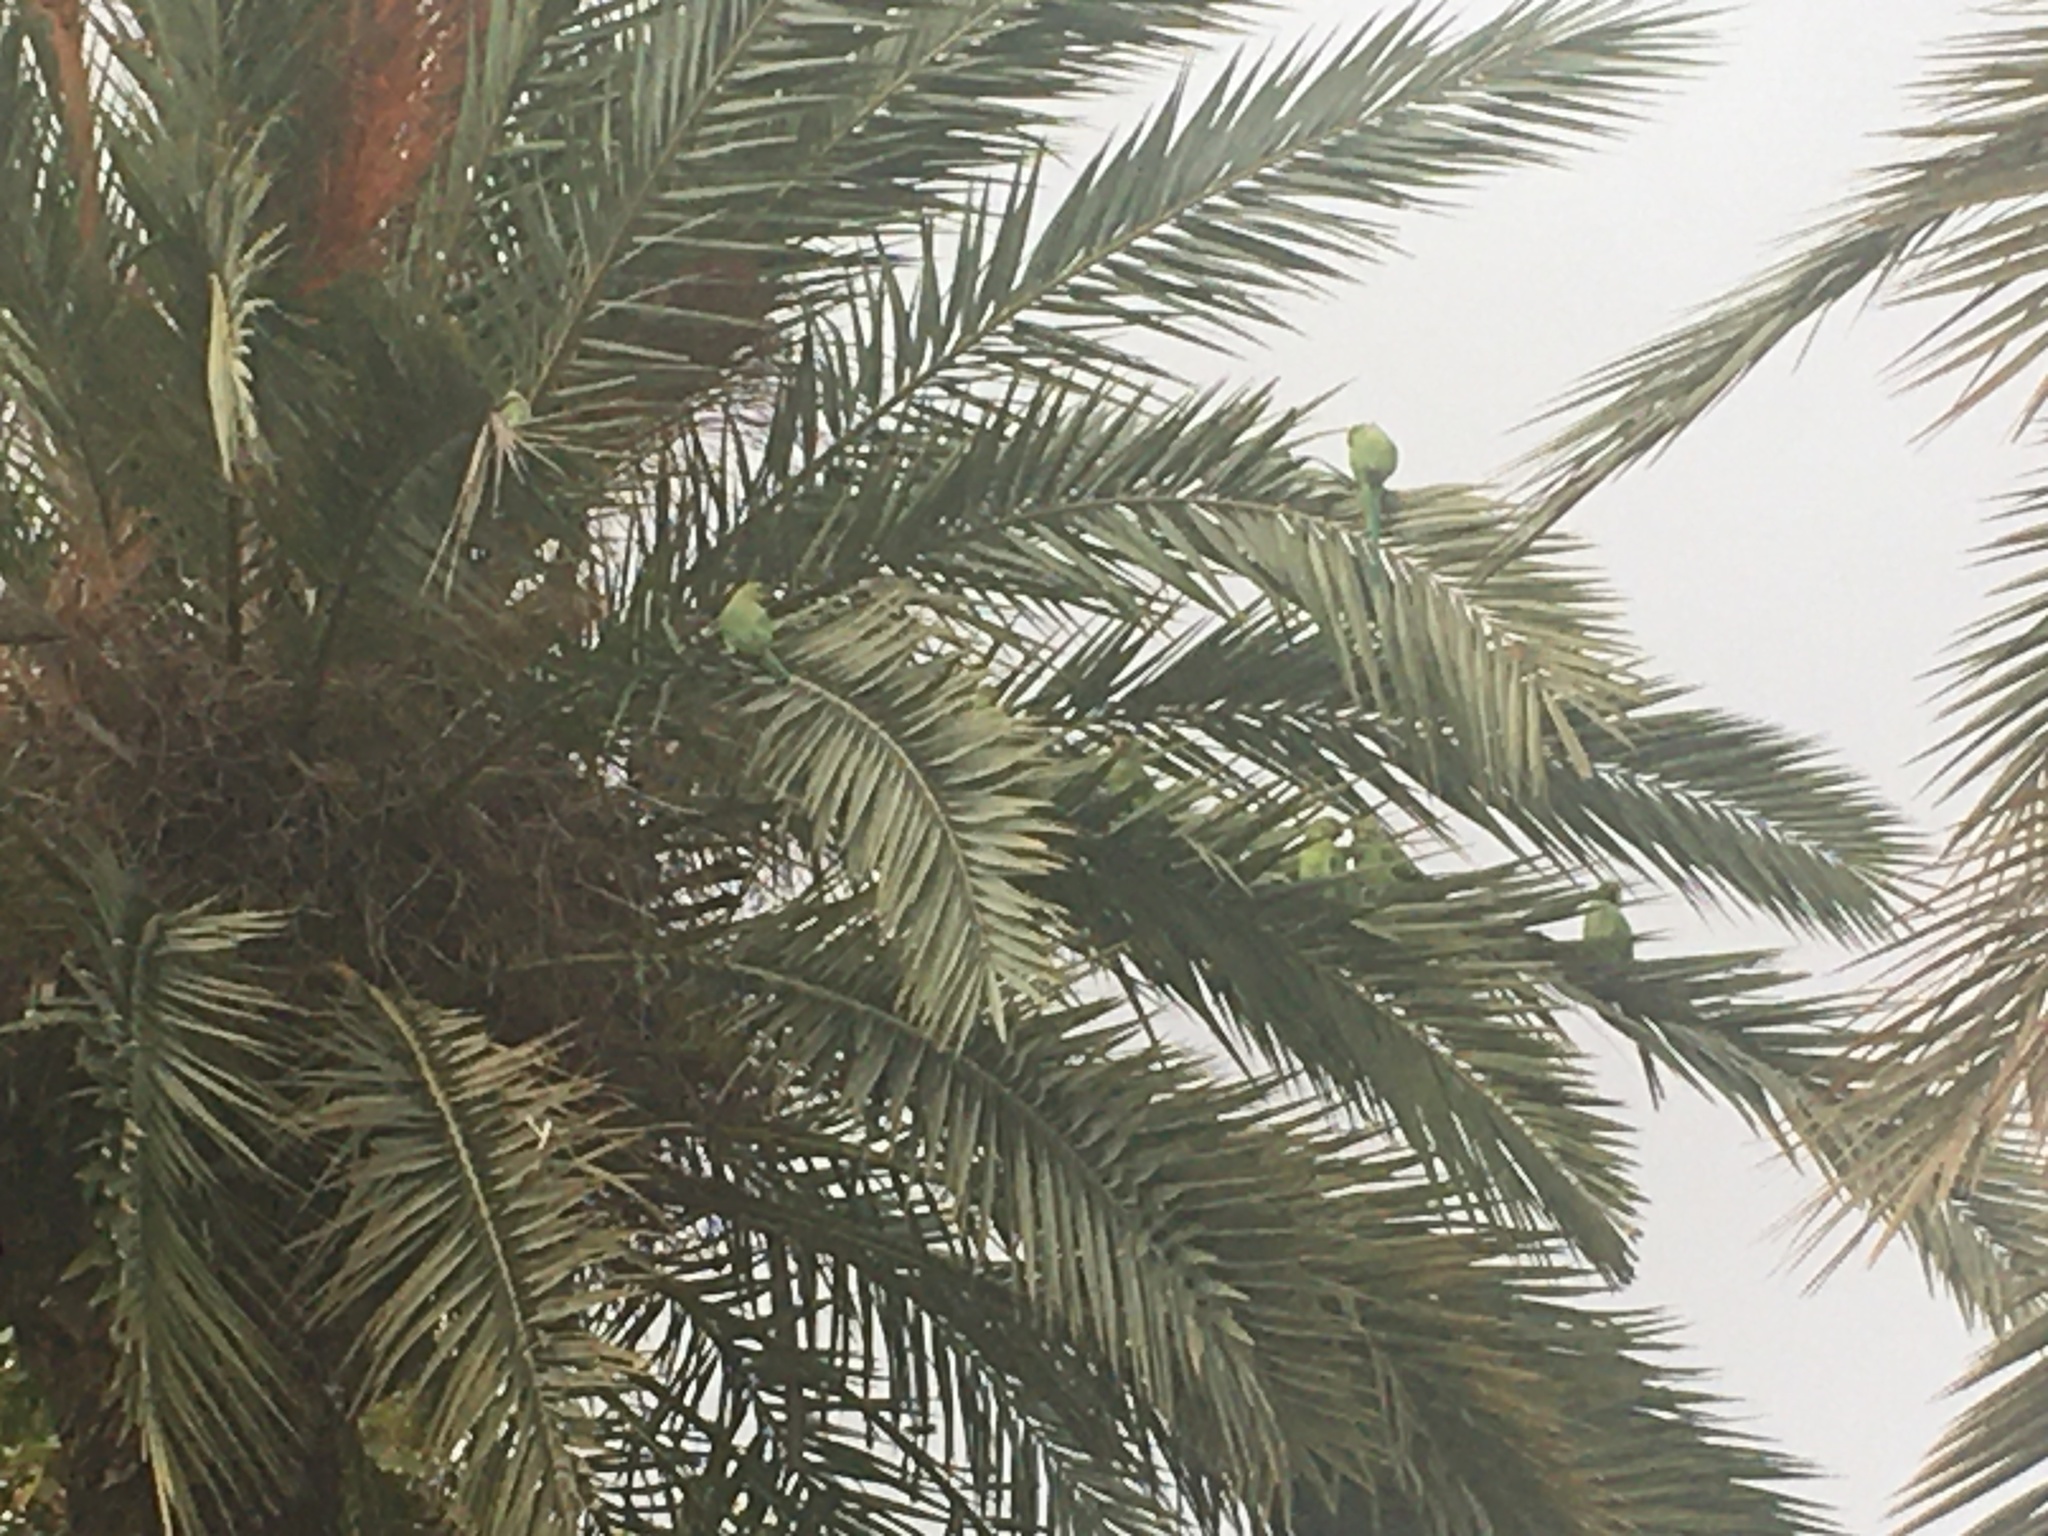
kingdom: Animalia
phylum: Chordata
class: Aves
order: Psittaciformes
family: Psittacidae
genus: Psittacula
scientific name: Psittacula krameri
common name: Rose-ringed parakeet
